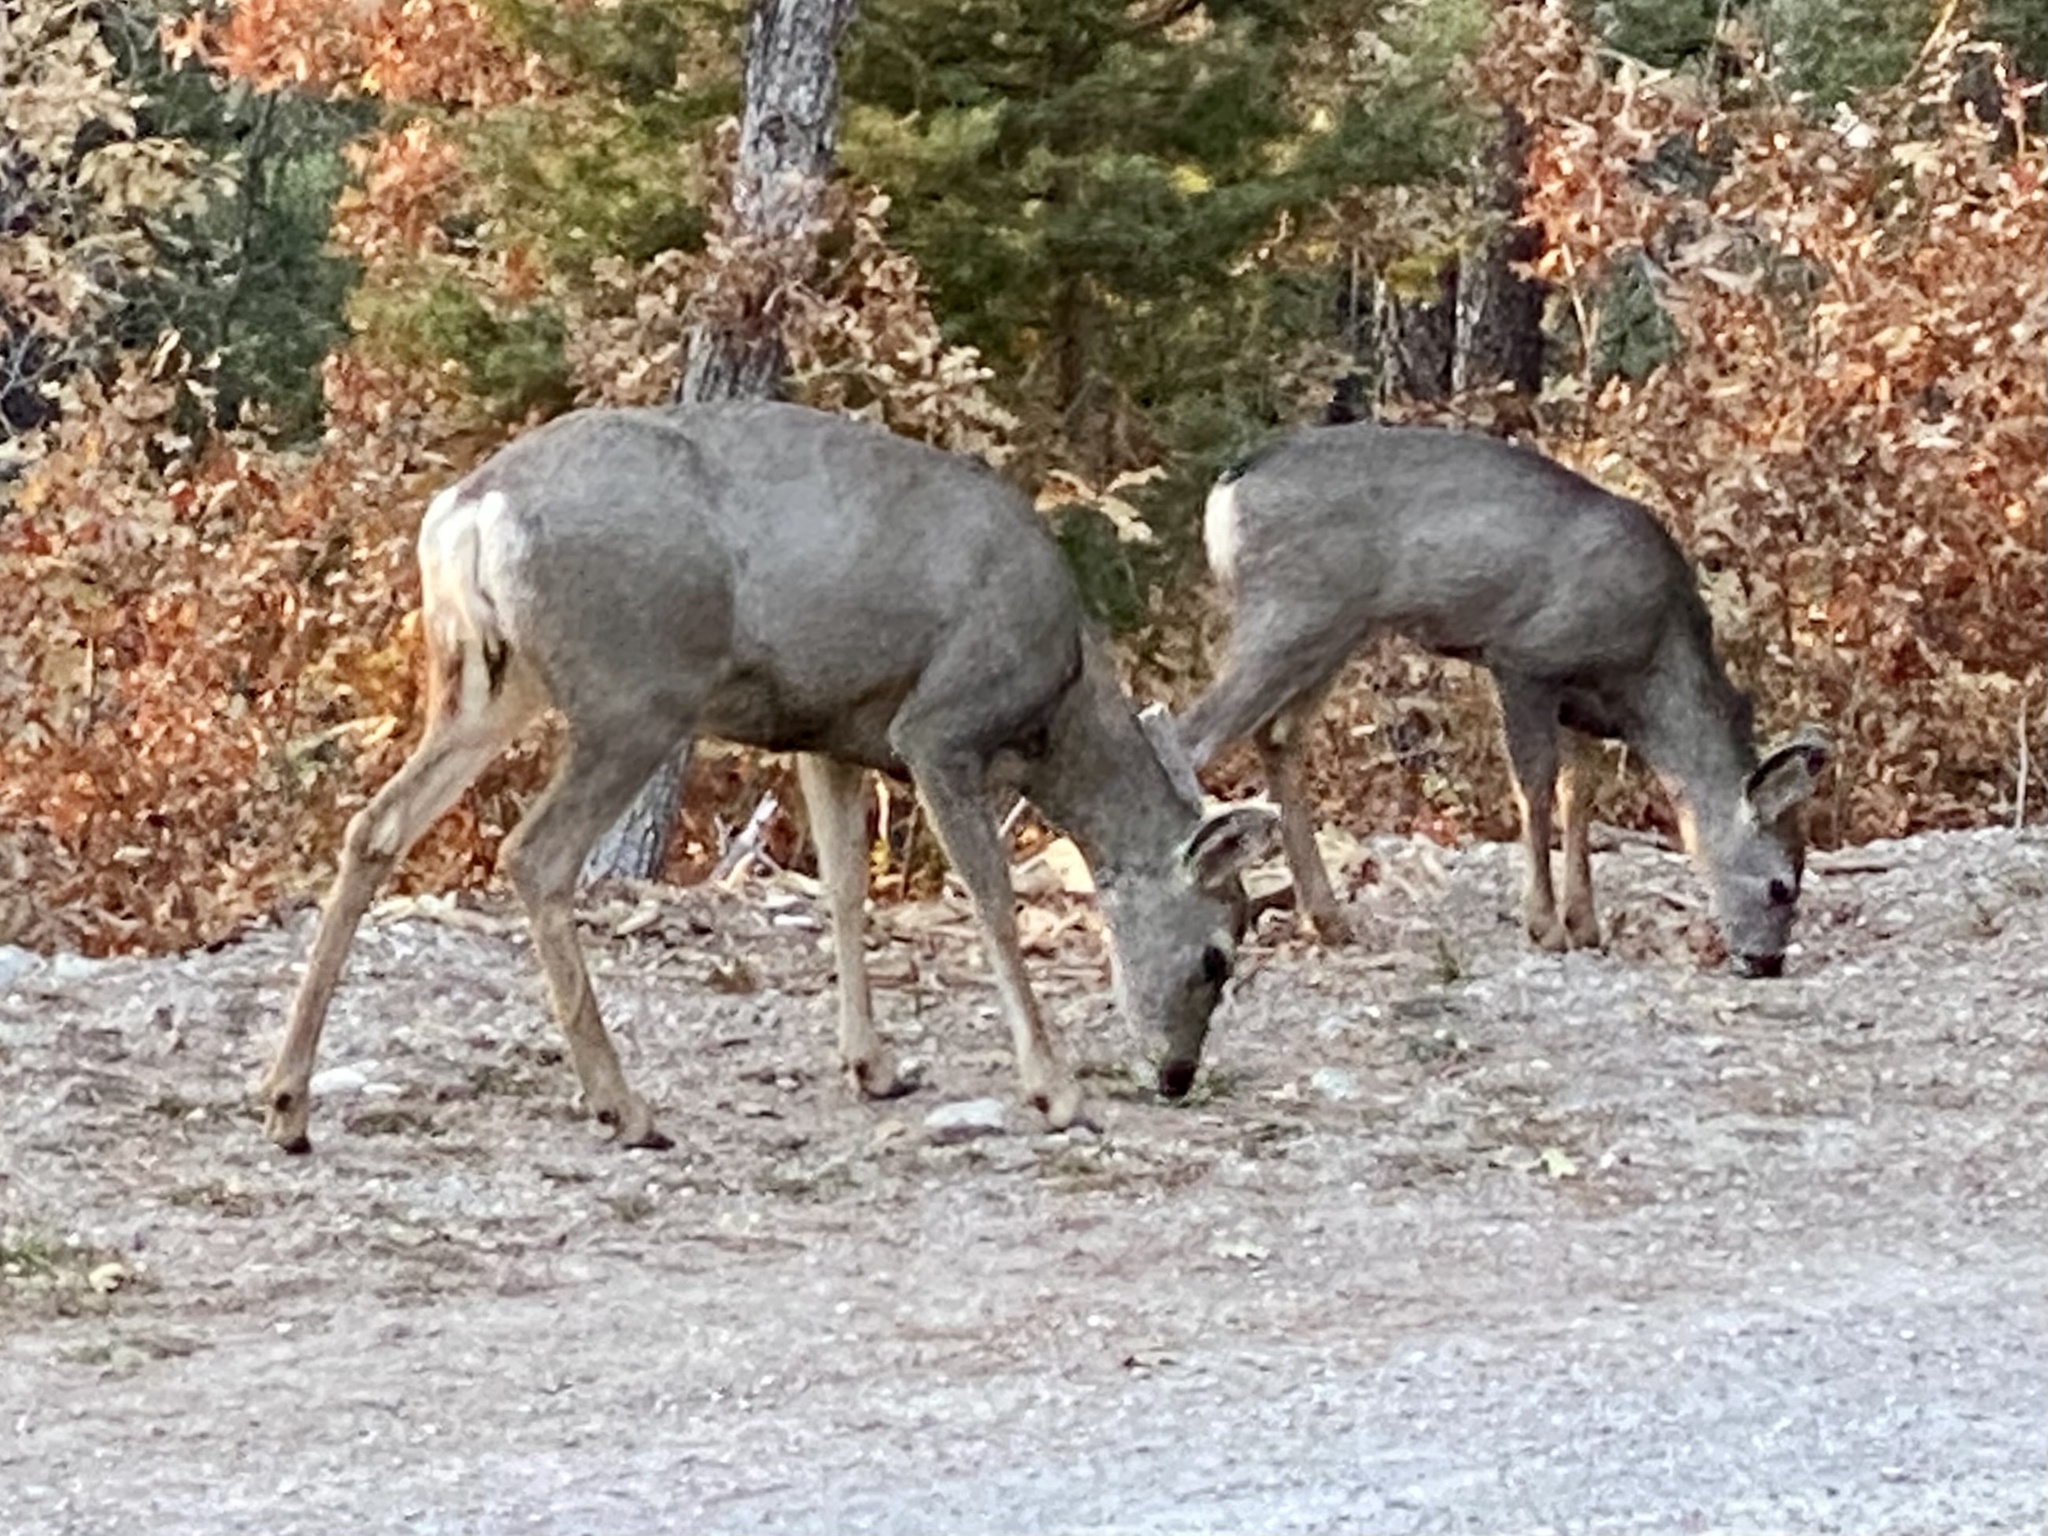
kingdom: Animalia
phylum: Chordata
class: Mammalia
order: Artiodactyla
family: Cervidae
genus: Odocoileus
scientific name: Odocoileus hemionus
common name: Mule deer
